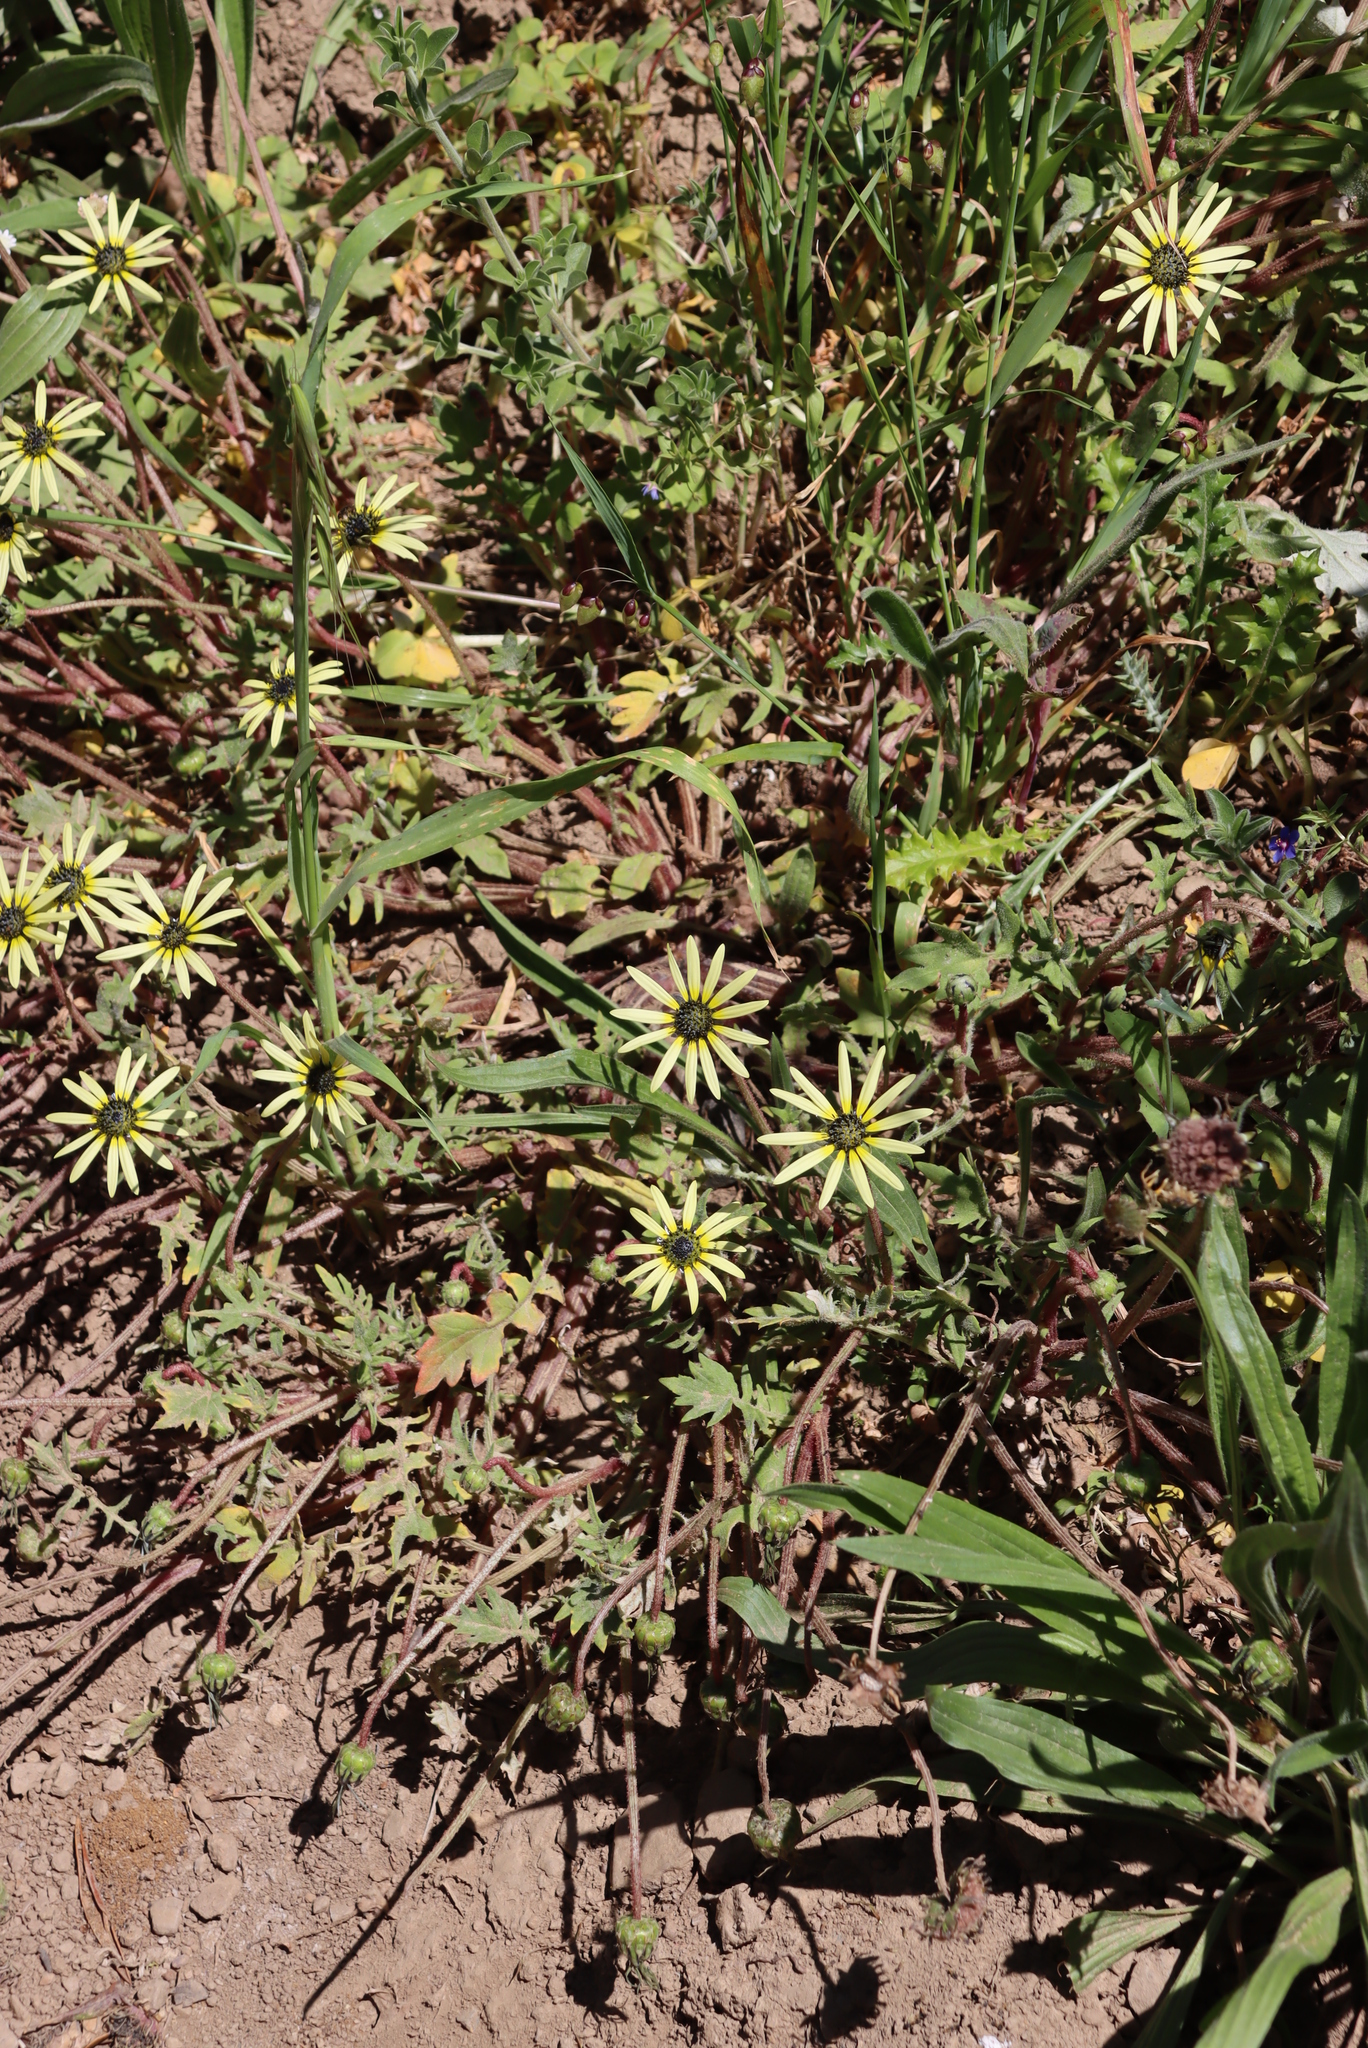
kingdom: Plantae
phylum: Tracheophyta
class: Magnoliopsida
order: Asterales
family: Asteraceae
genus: Arctotheca
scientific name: Arctotheca calendula
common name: Capeweed
